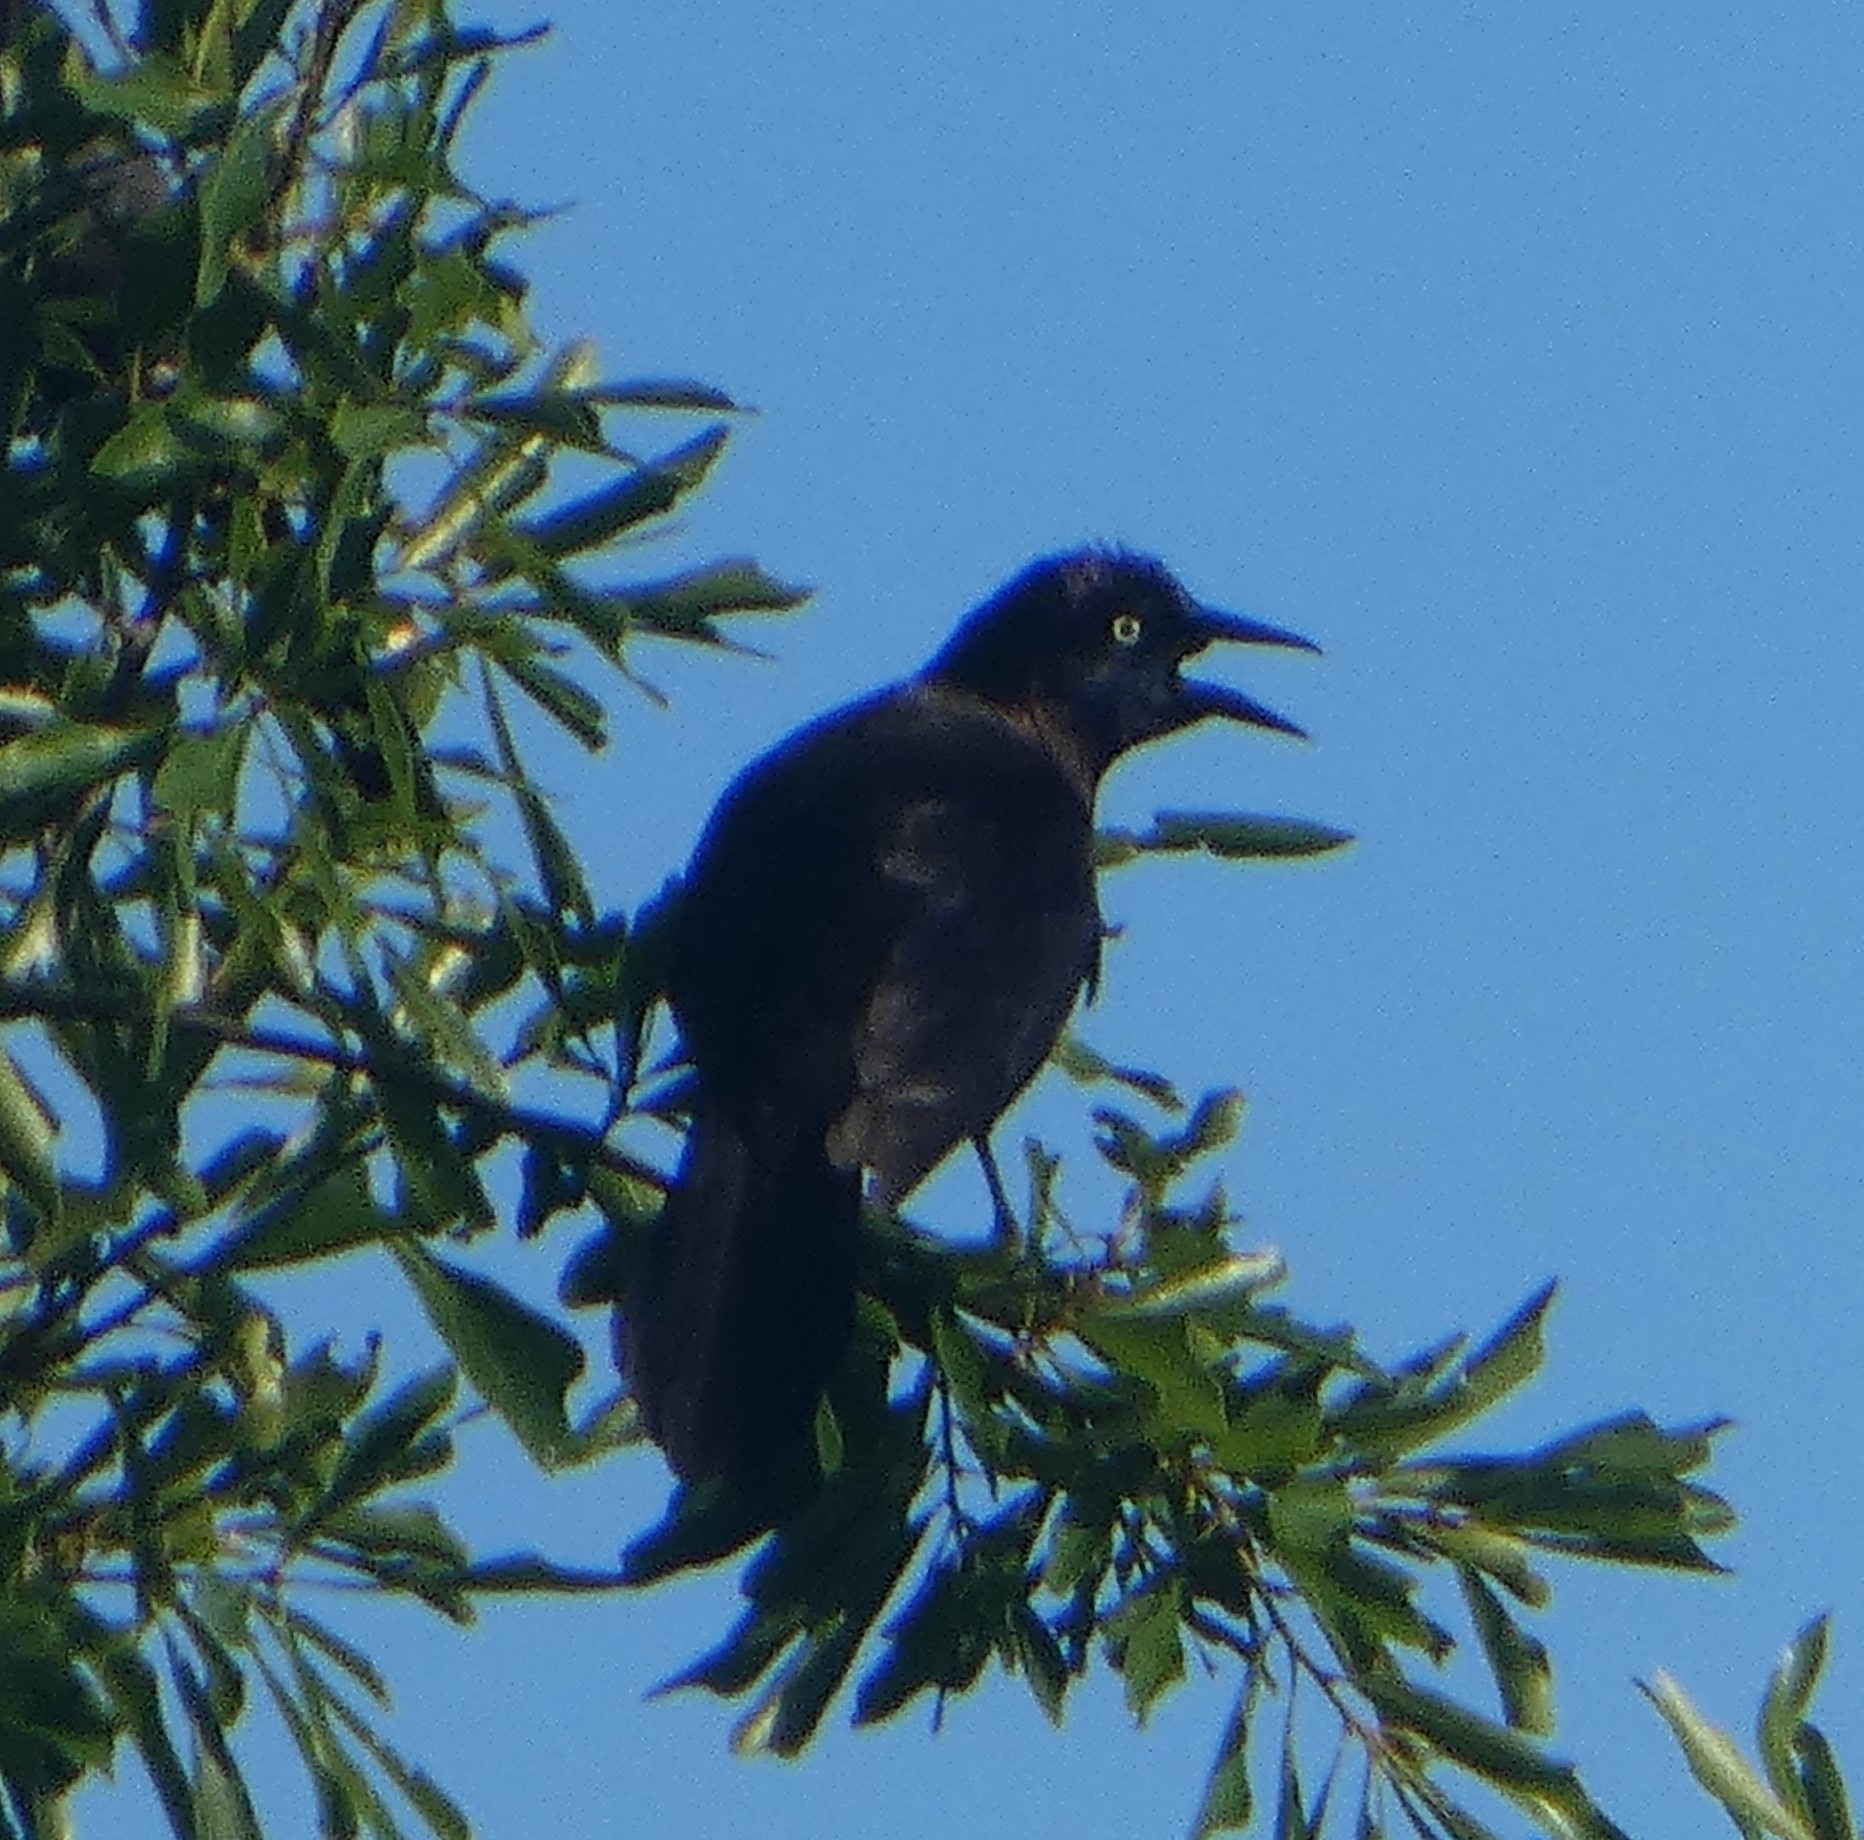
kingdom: Animalia
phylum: Chordata
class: Aves
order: Passeriformes
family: Icteridae
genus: Quiscalus
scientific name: Quiscalus major
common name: Boat-tailed grackle
